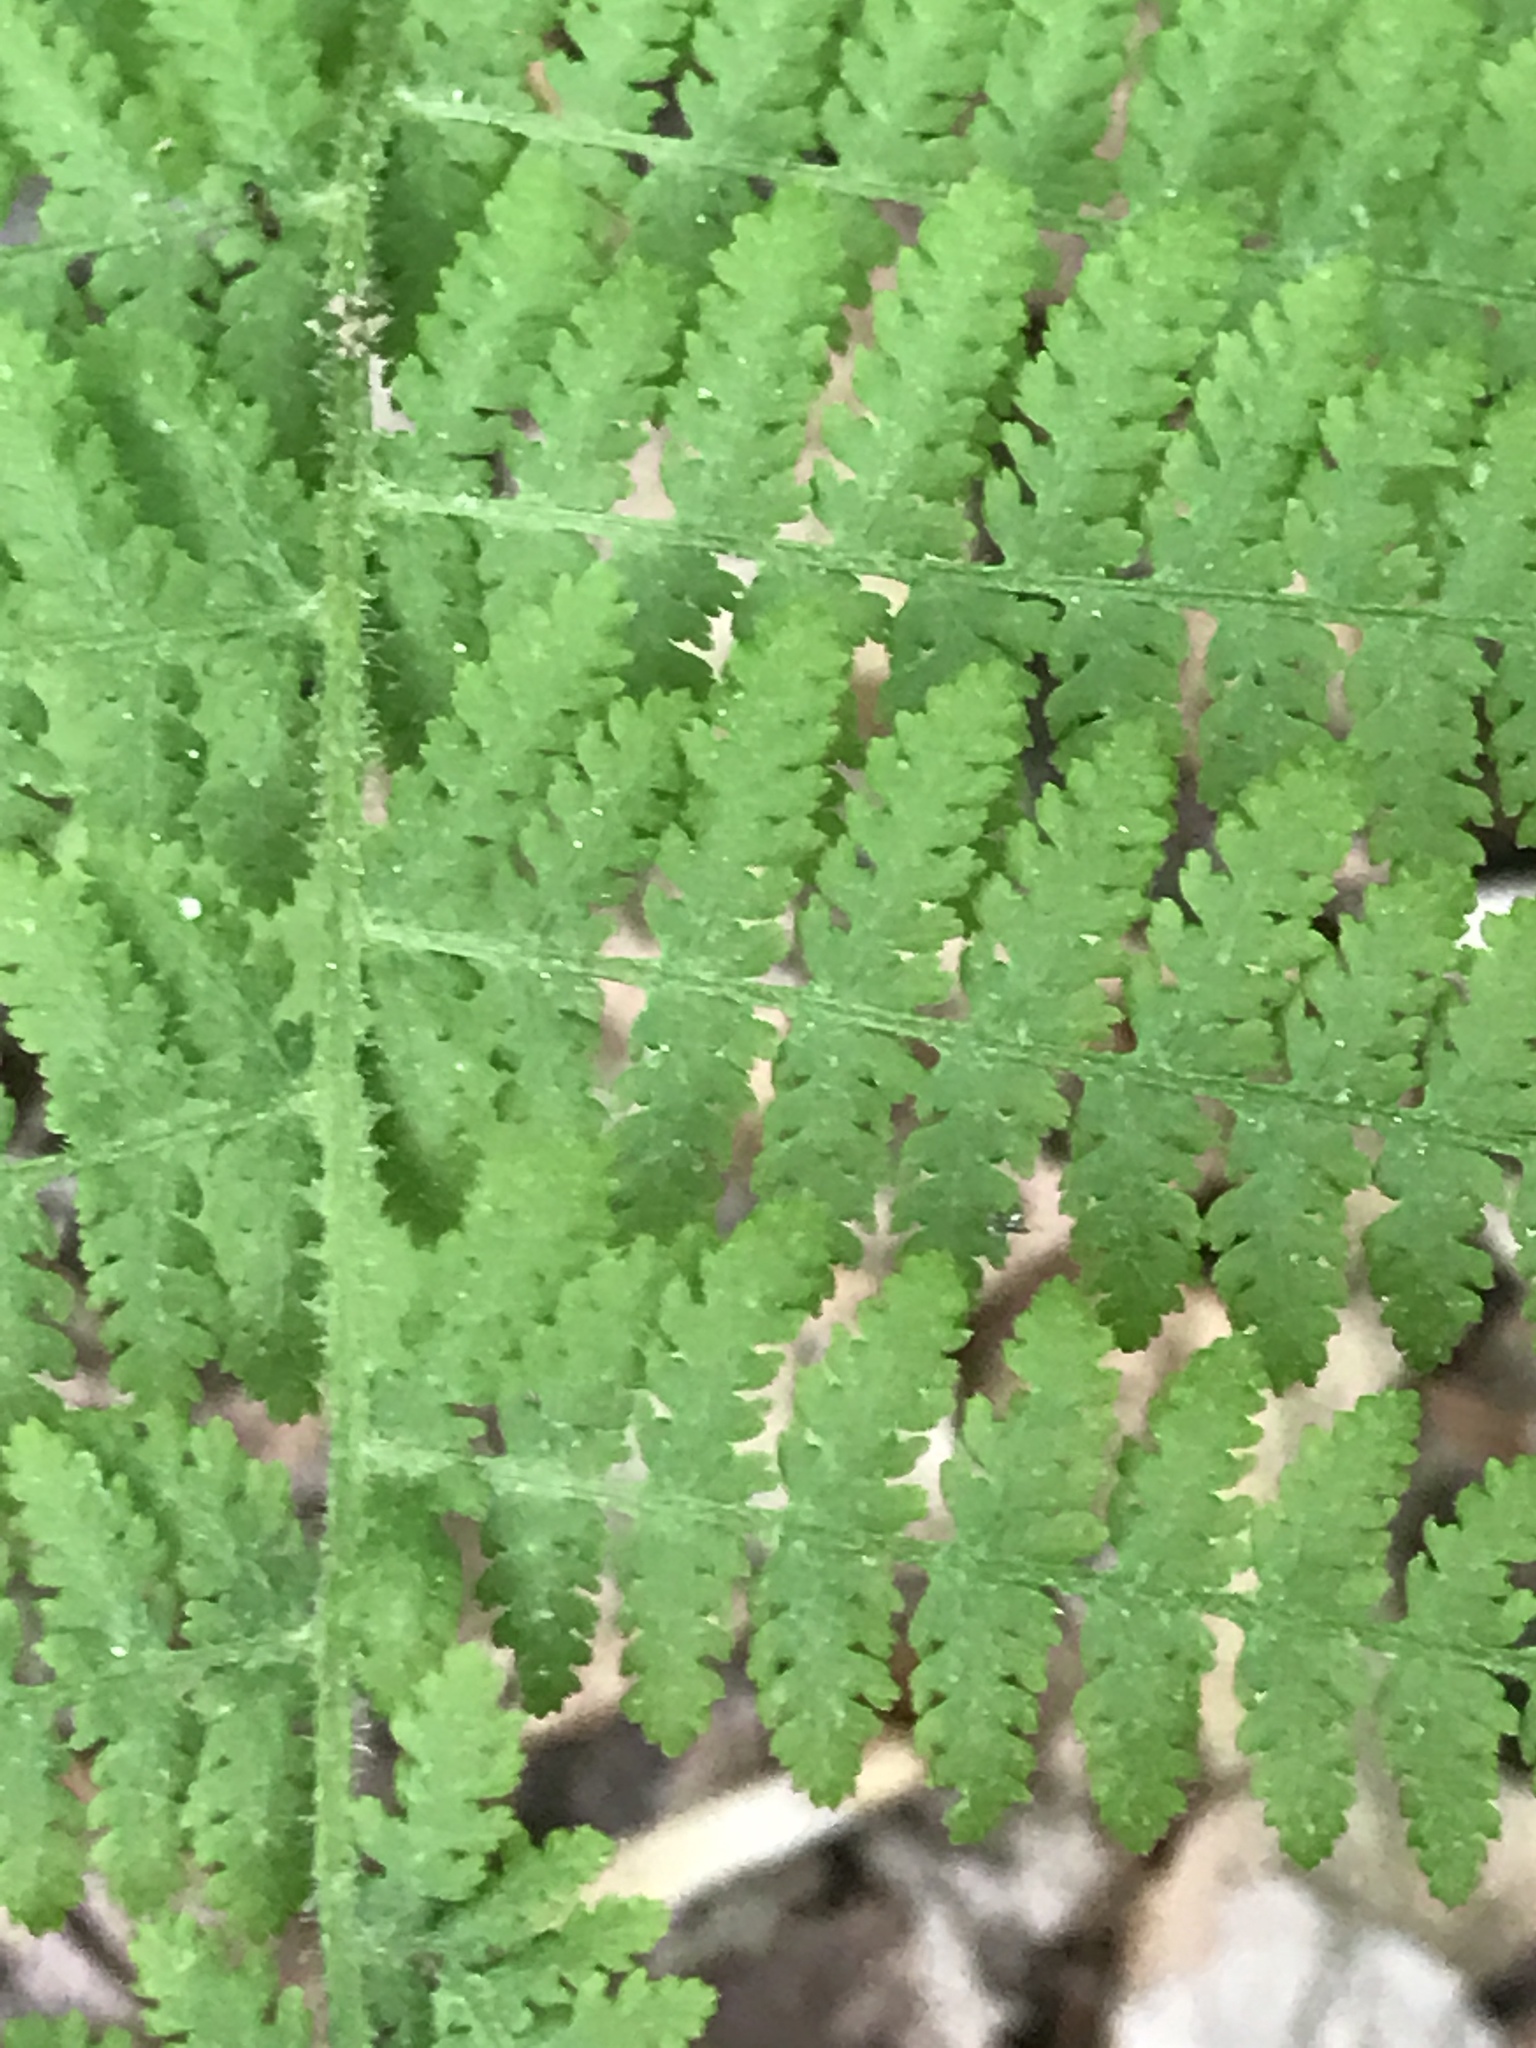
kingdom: Plantae
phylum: Tracheophyta
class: Polypodiopsida
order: Polypodiales
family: Dennstaedtiaceae
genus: Sitobolium
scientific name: Sitobolium punctilobum
